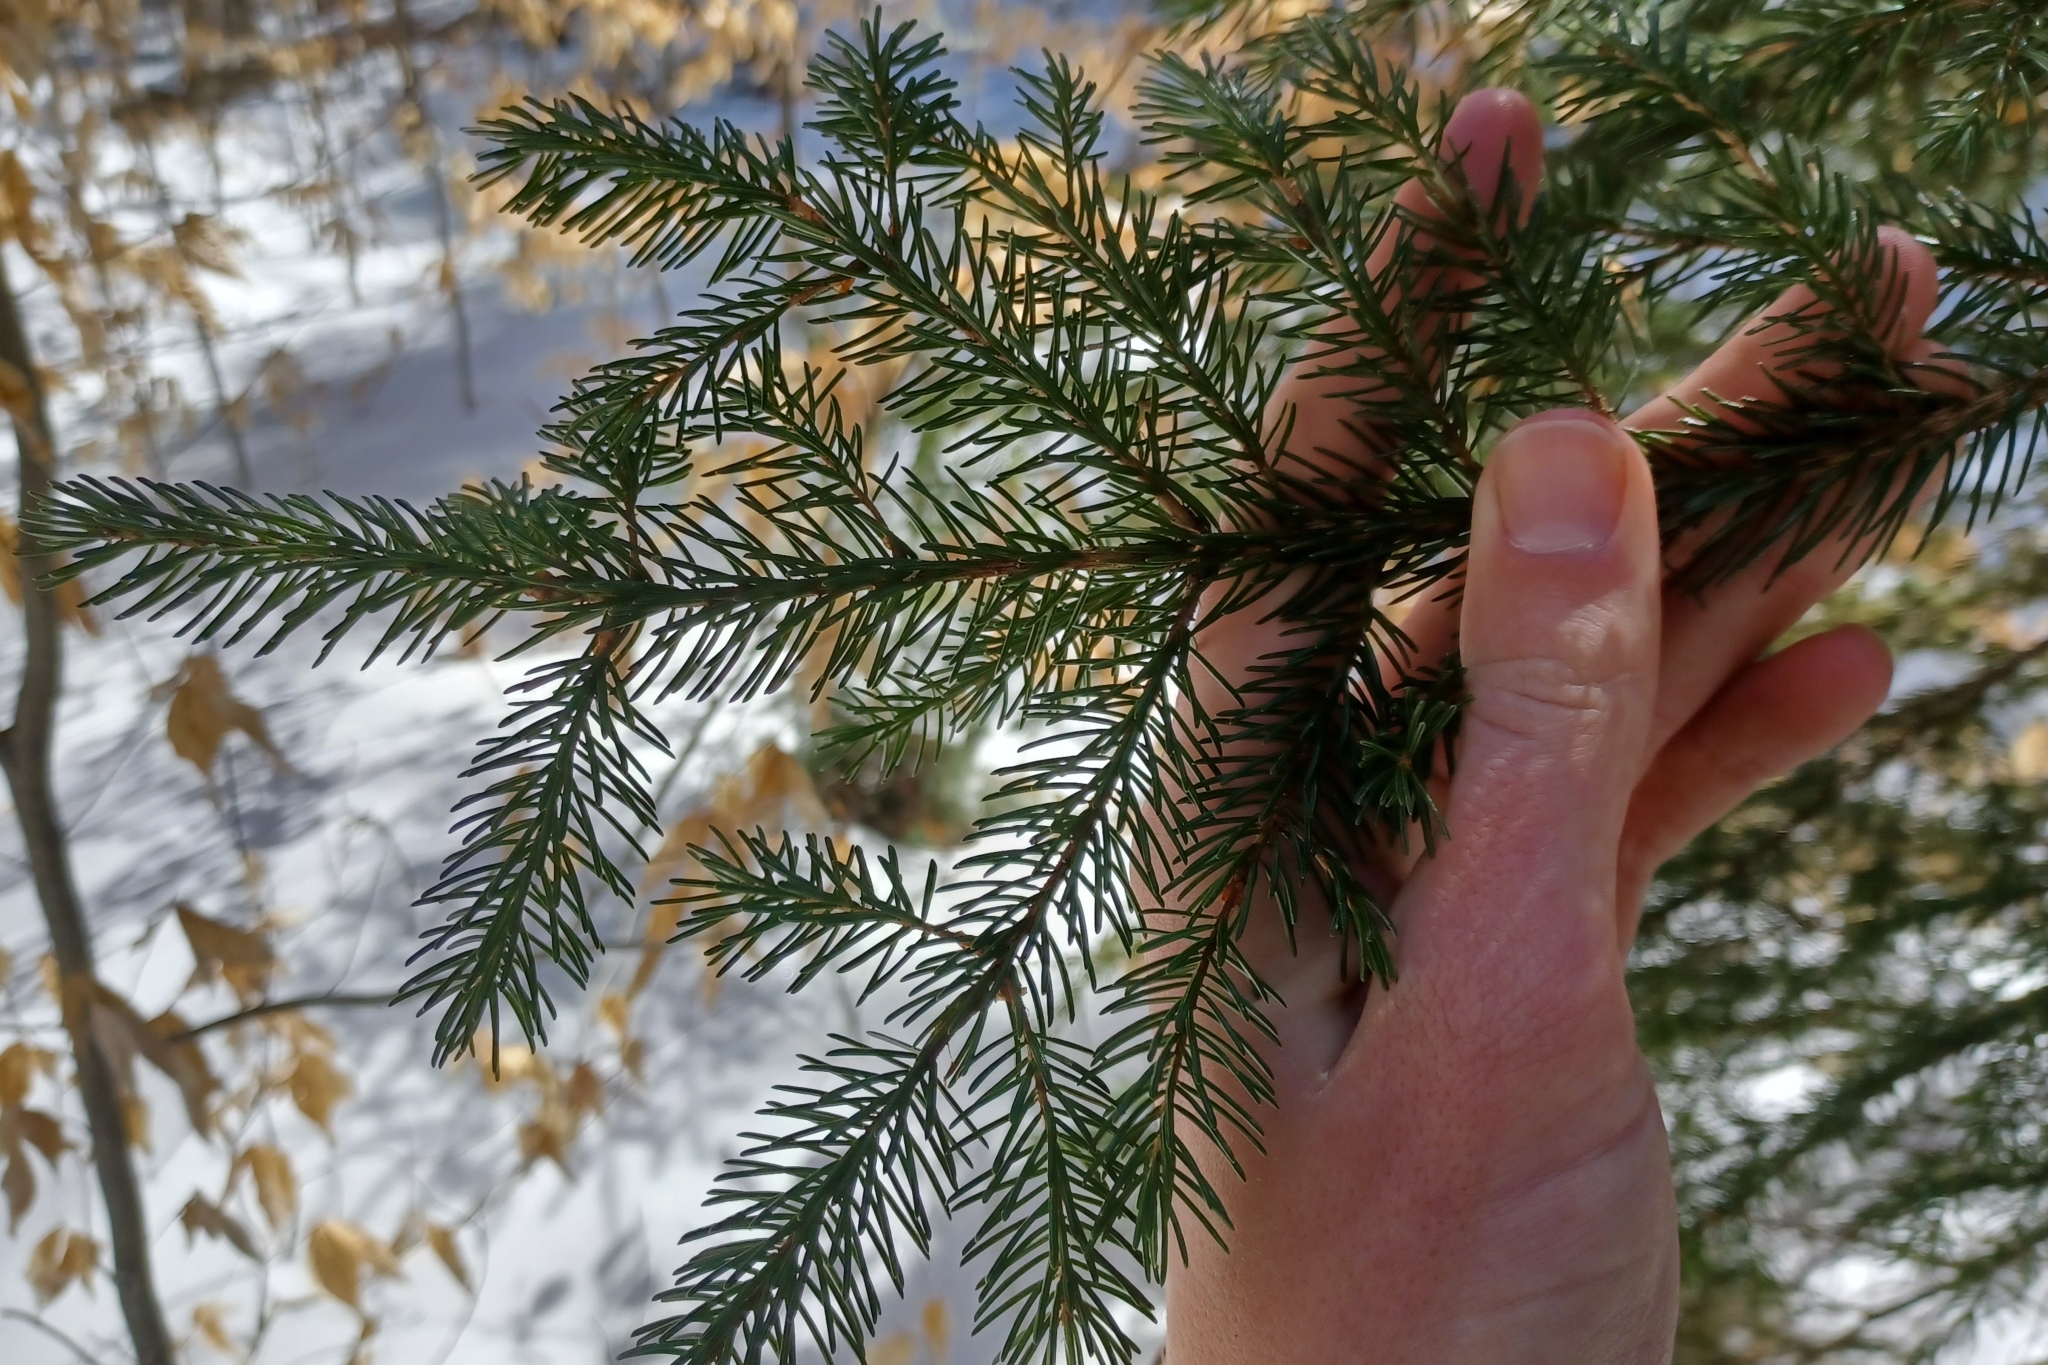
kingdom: Plantae
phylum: Tracheophyta
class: Pinopsida
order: Pinales
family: Pinaceae
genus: Picea
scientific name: Picea rubens
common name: Red spruce
